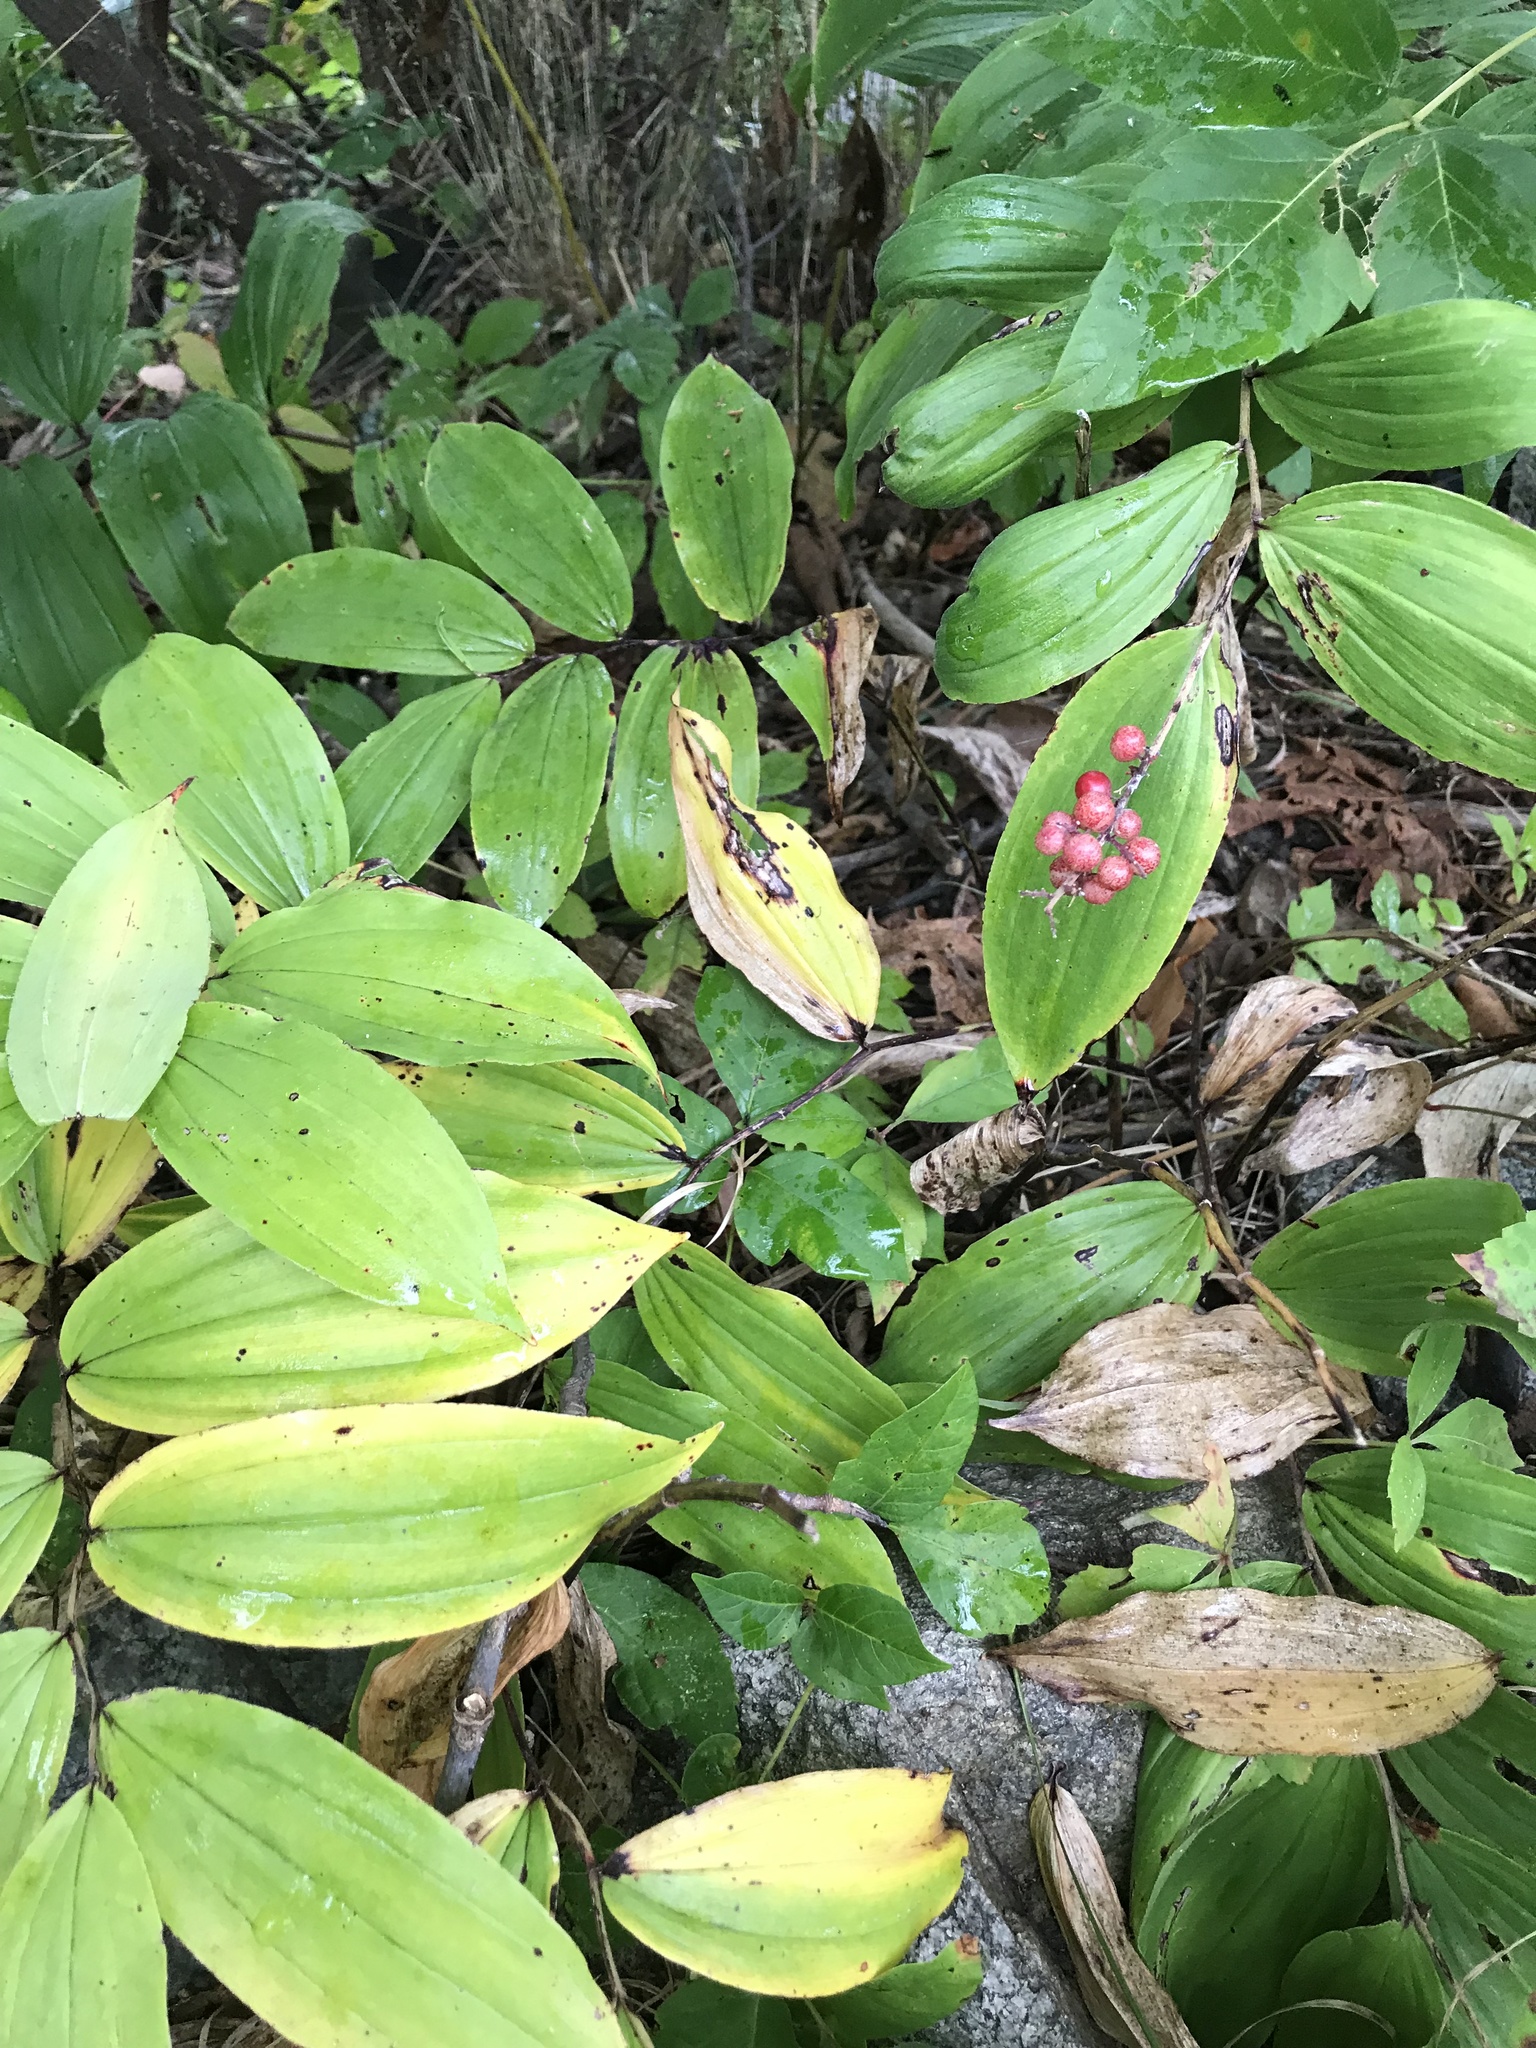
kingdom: Plantae
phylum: Tracheophyta
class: Liliopsida
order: Asparagales
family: Asparagaceae
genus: Maianthemum
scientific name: Maianthemum racemosum
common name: False spikenard
